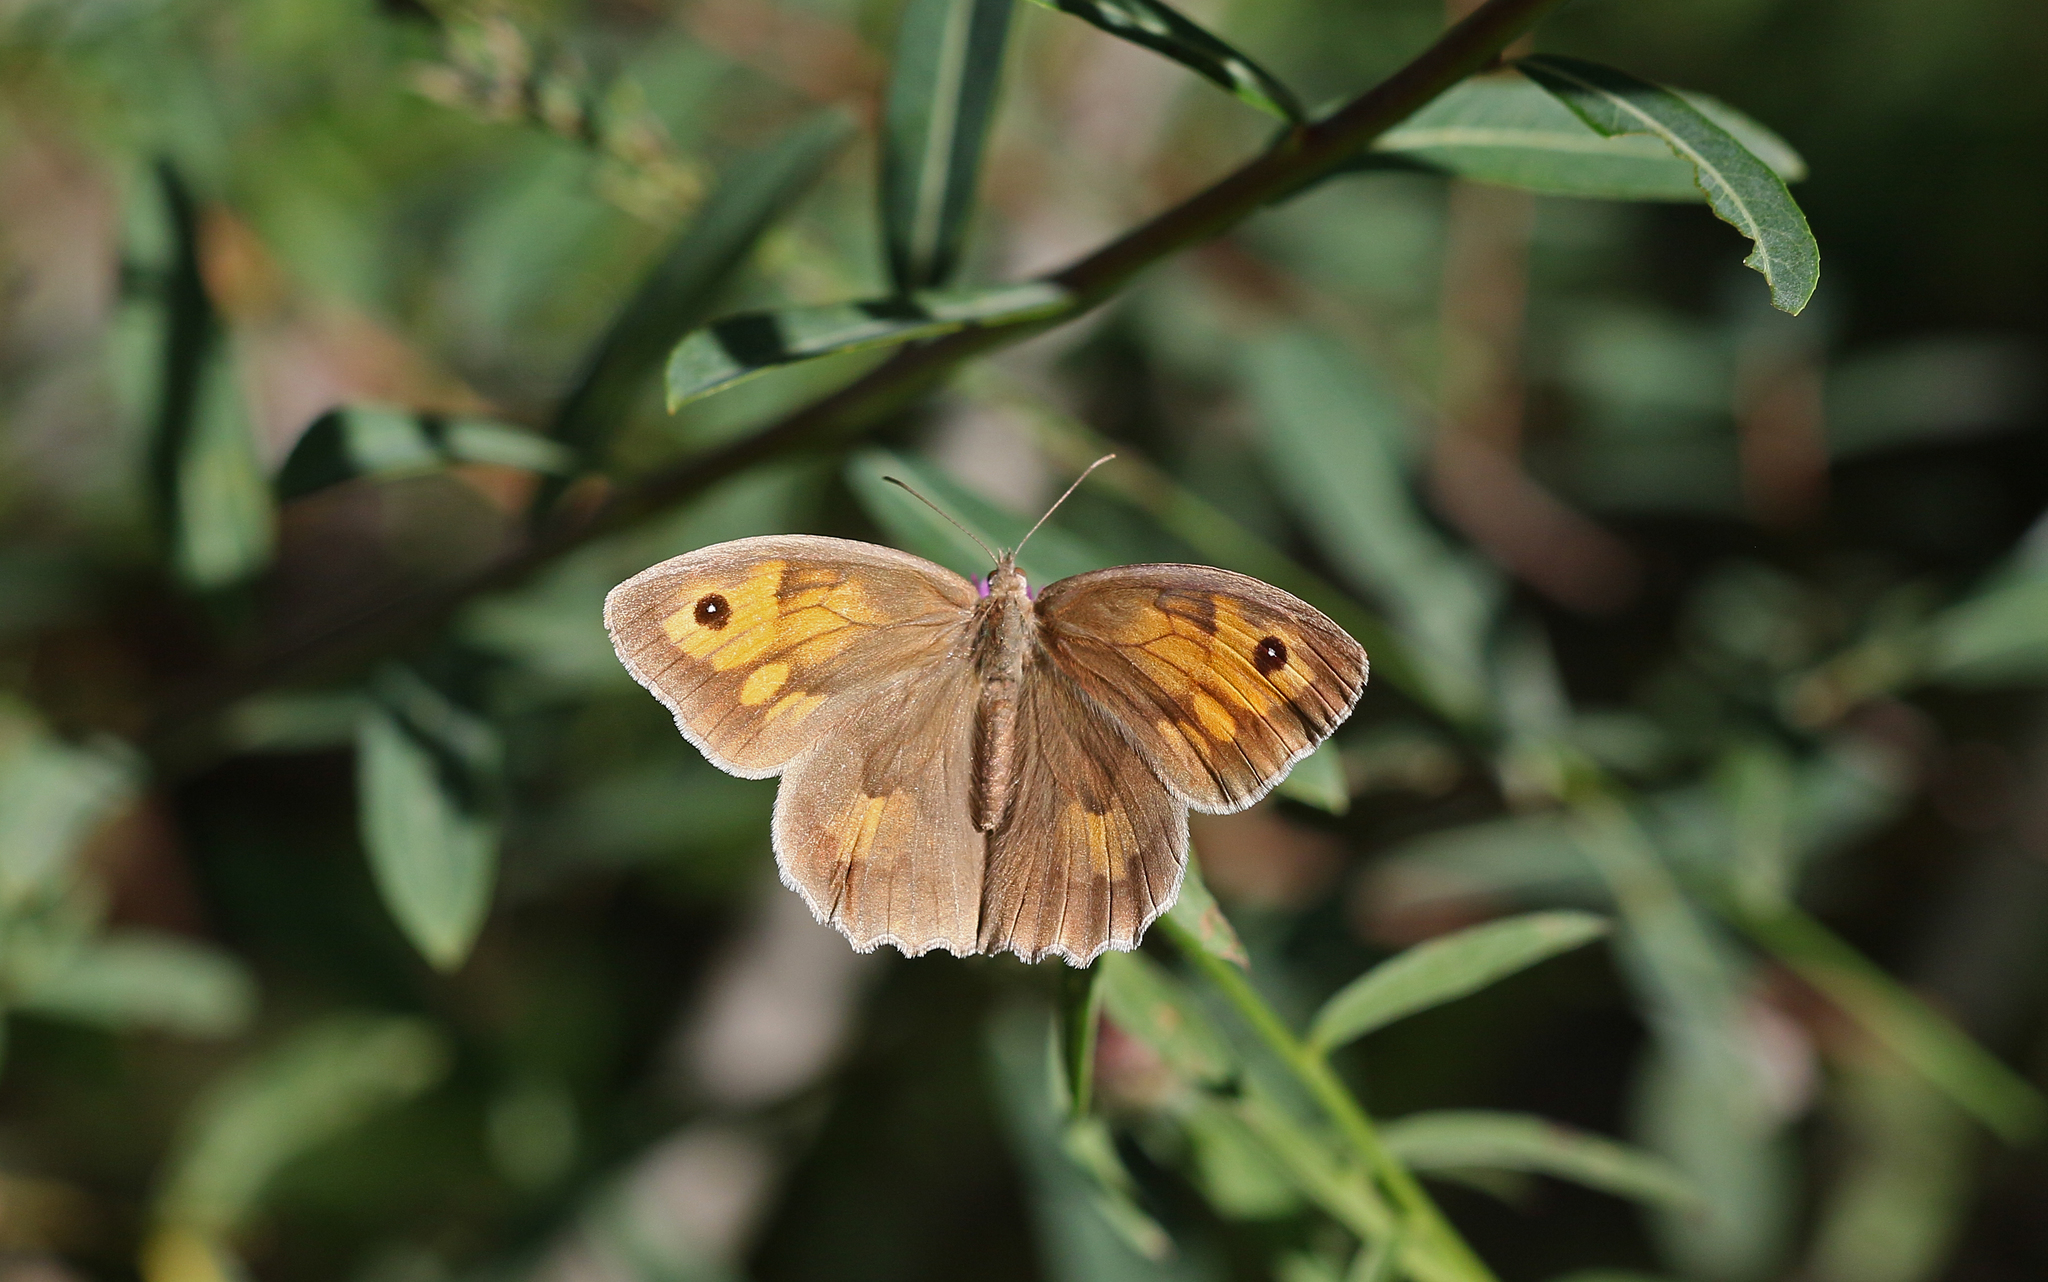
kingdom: Animalia
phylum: Arthropoda
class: Insecta
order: Lepidoptera
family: Nymphalidae
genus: Hyponephele
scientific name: Hyponephele lycaon
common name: Dusky meadow brown
